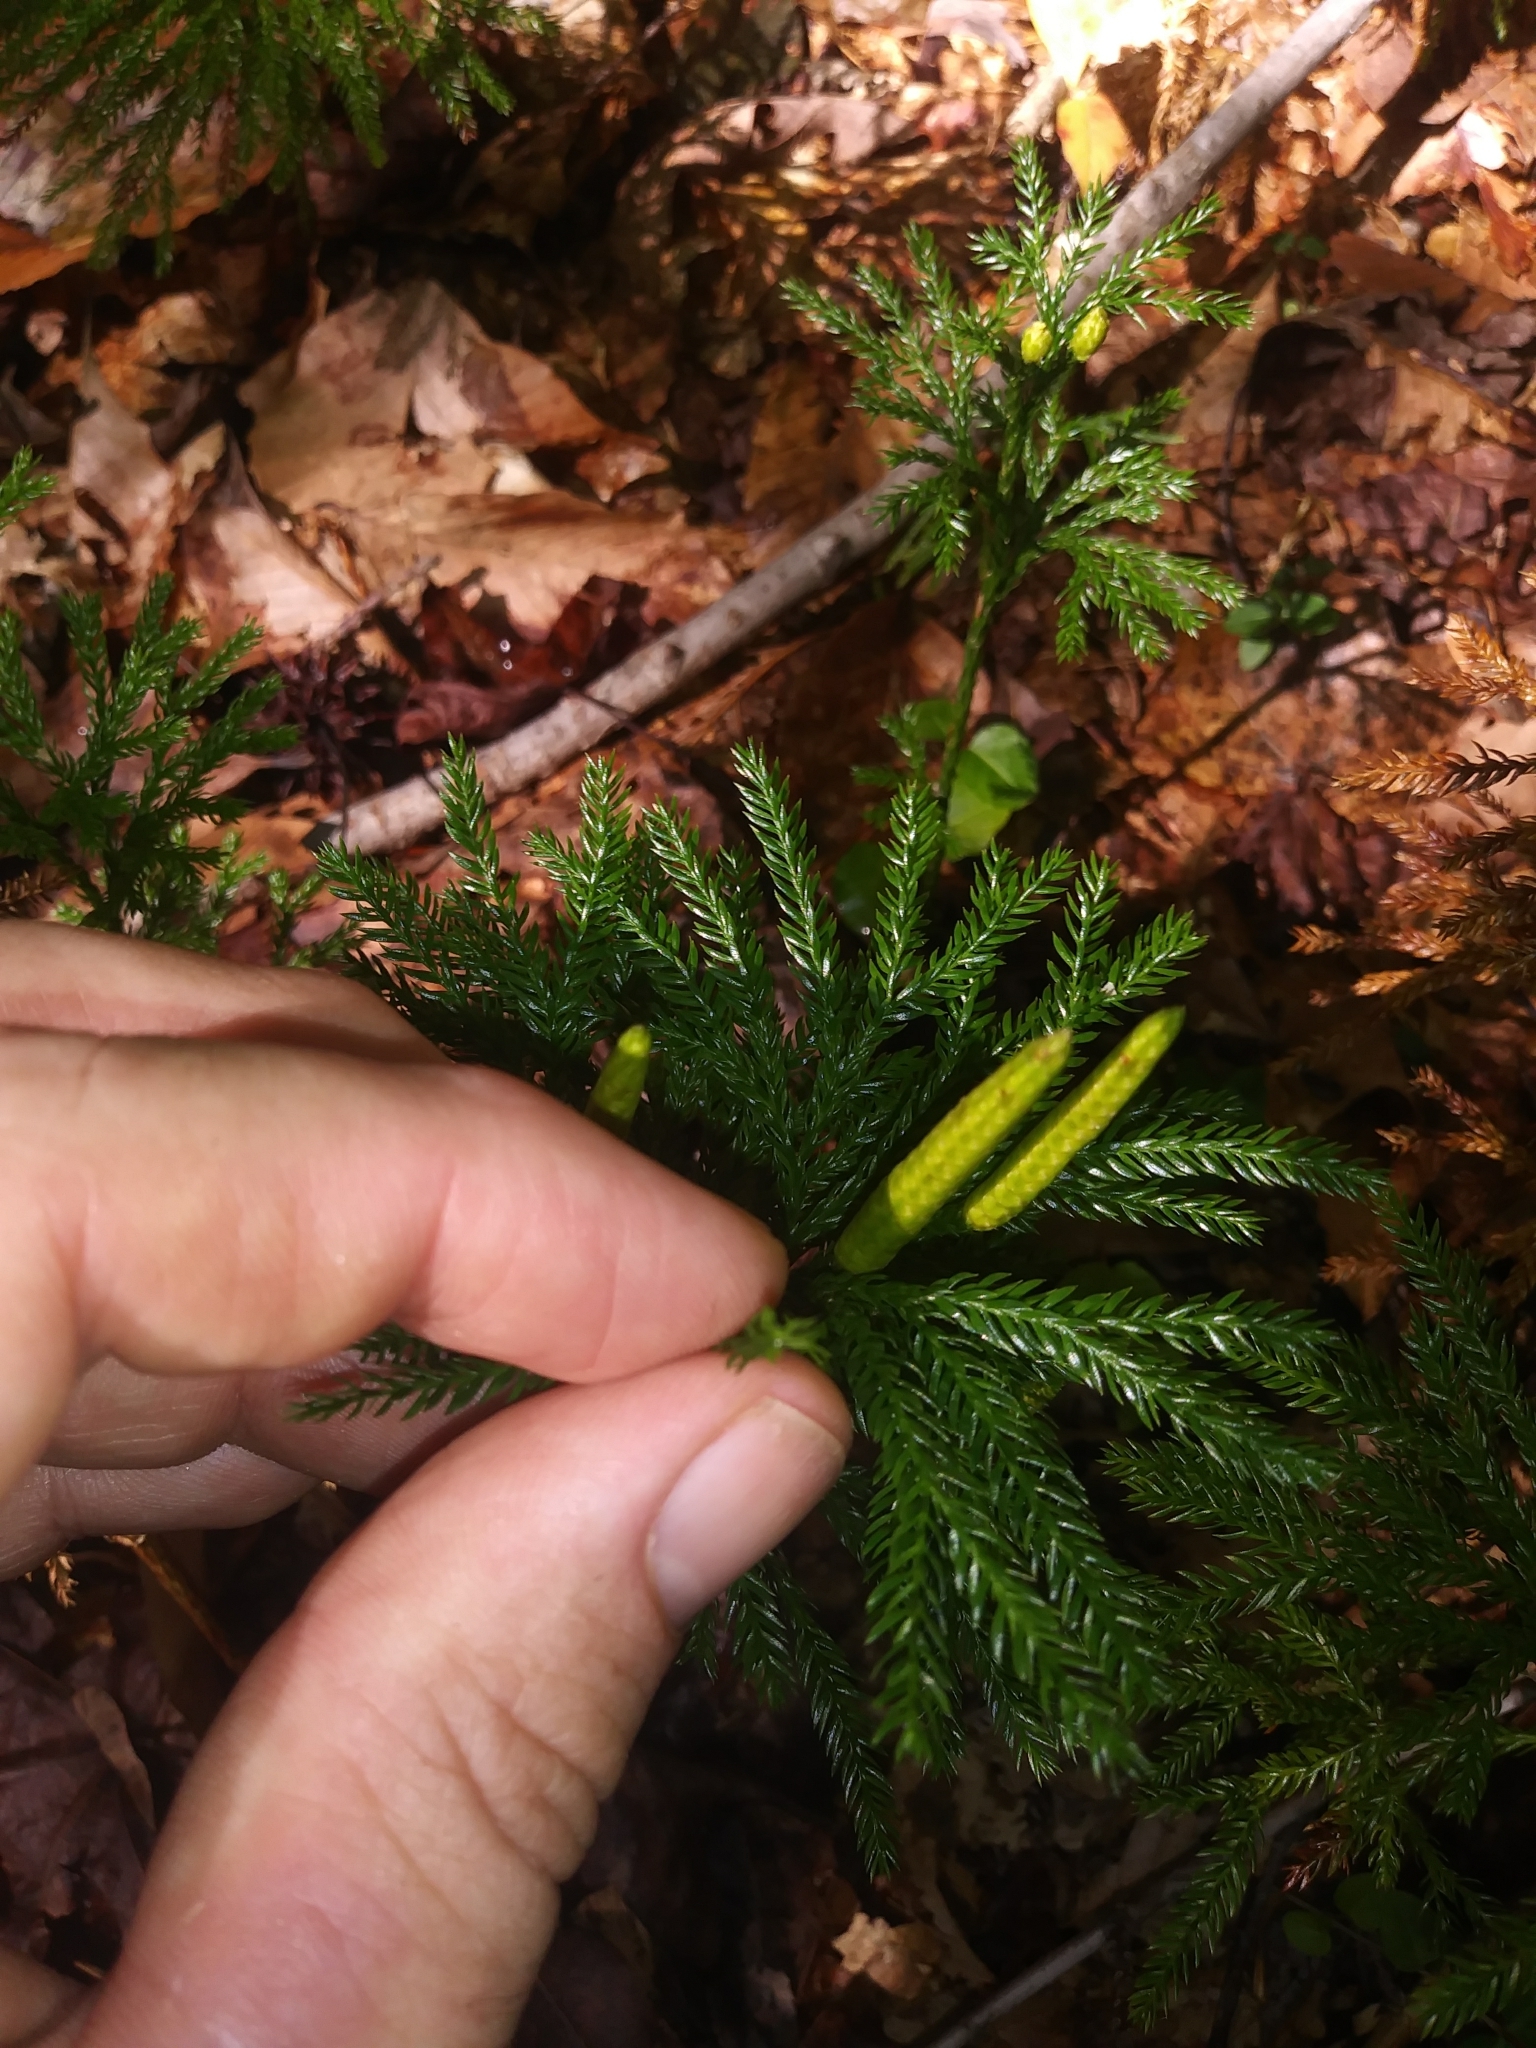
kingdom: Plantae
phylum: Tracheophyta
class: Lycopodiopsida
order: Lycopodiales
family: Lycopodiaceae
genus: Dendrolycopodium
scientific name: Dendrolycopodium obscurum
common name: Common ground-pine
